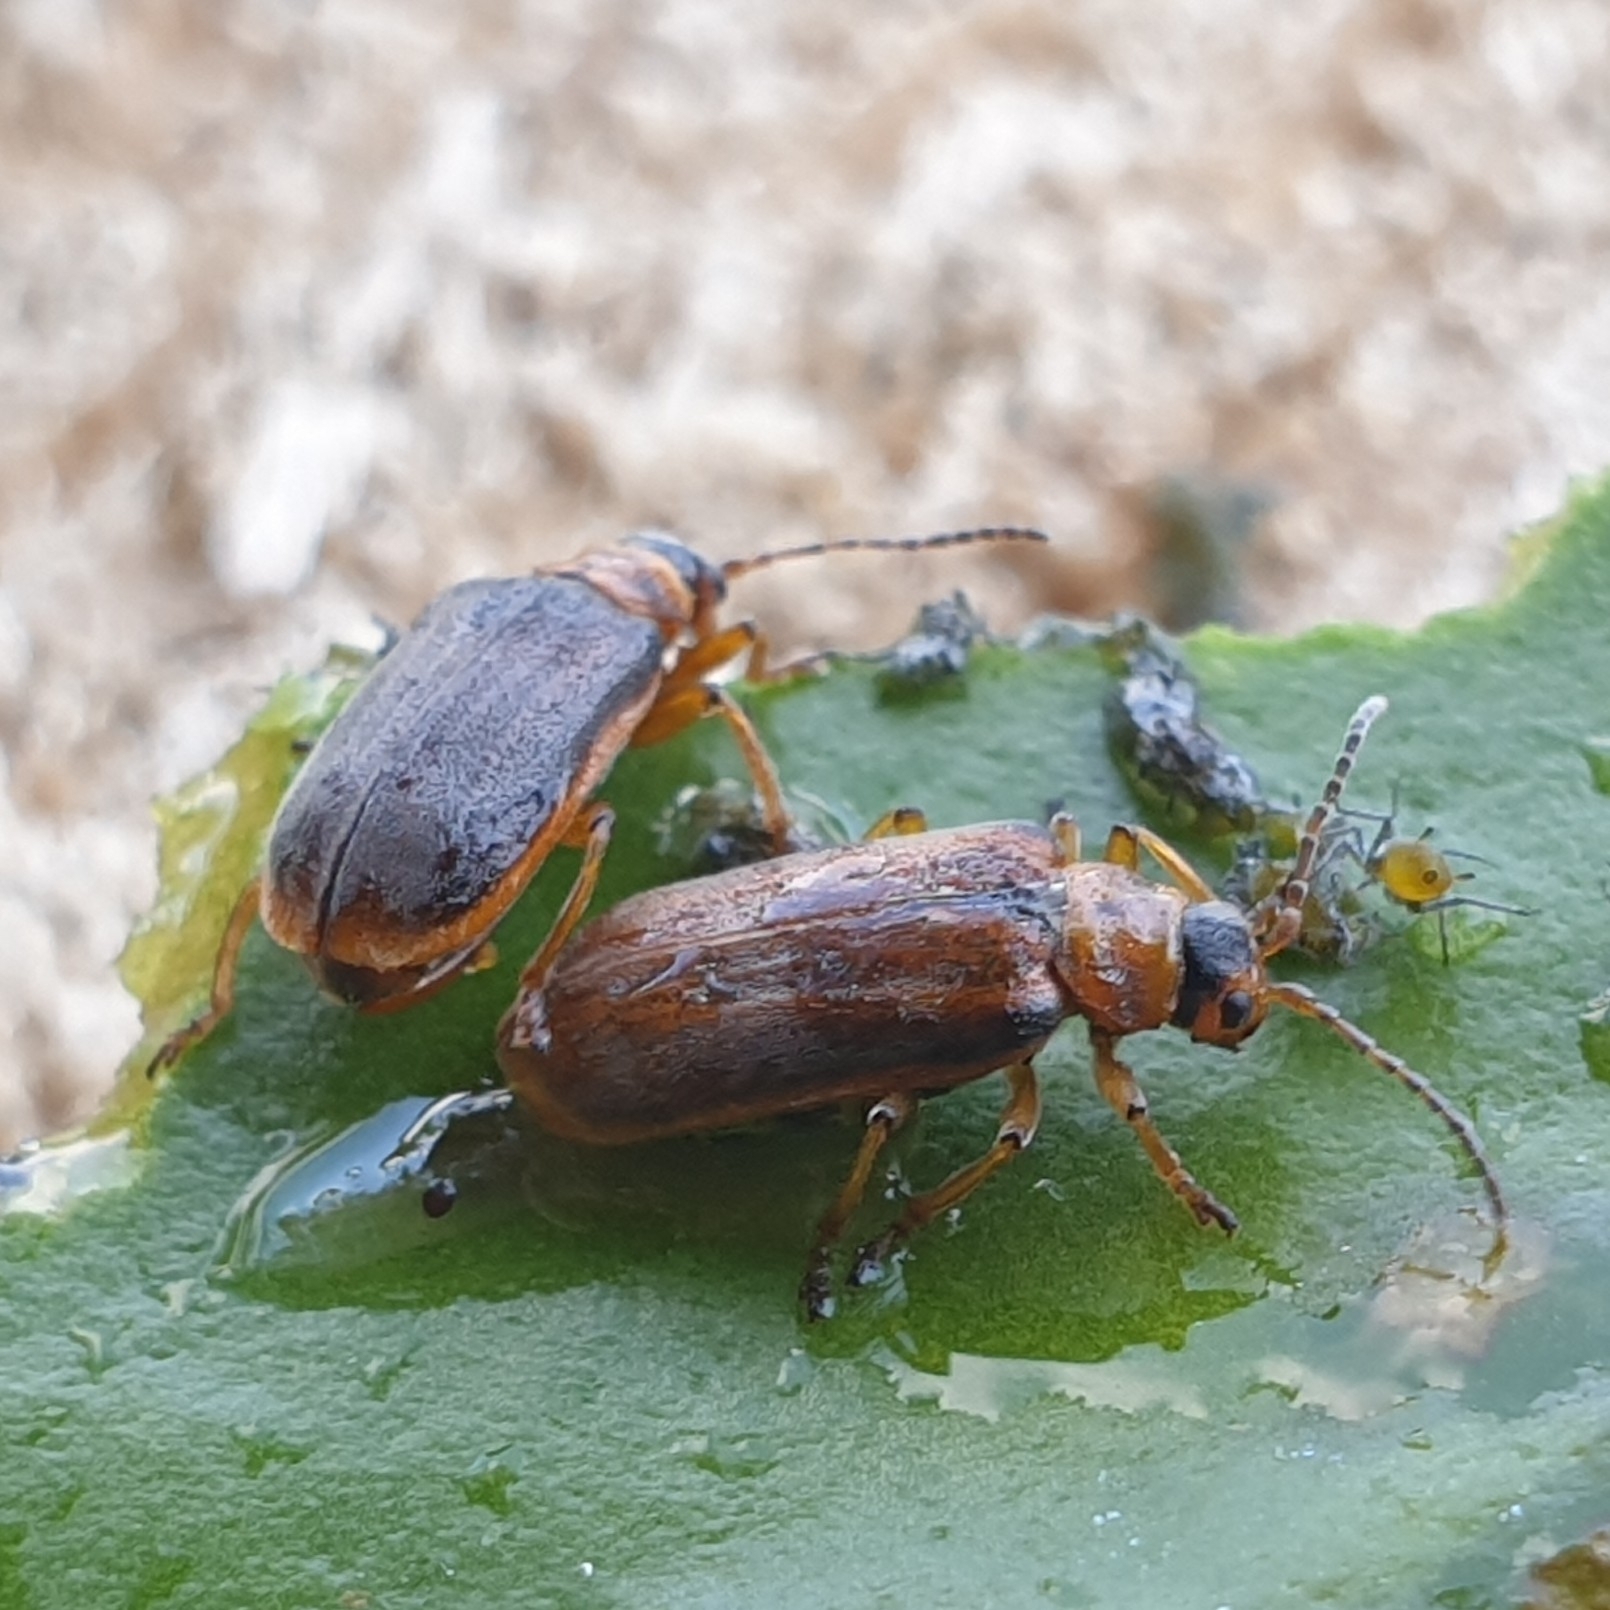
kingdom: Animalia
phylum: Arthropoda
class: Insecta
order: Coleoptera
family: Chrysomelidae
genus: Galerucella
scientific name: Galerucella nymphaeae
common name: Leaf beetle
